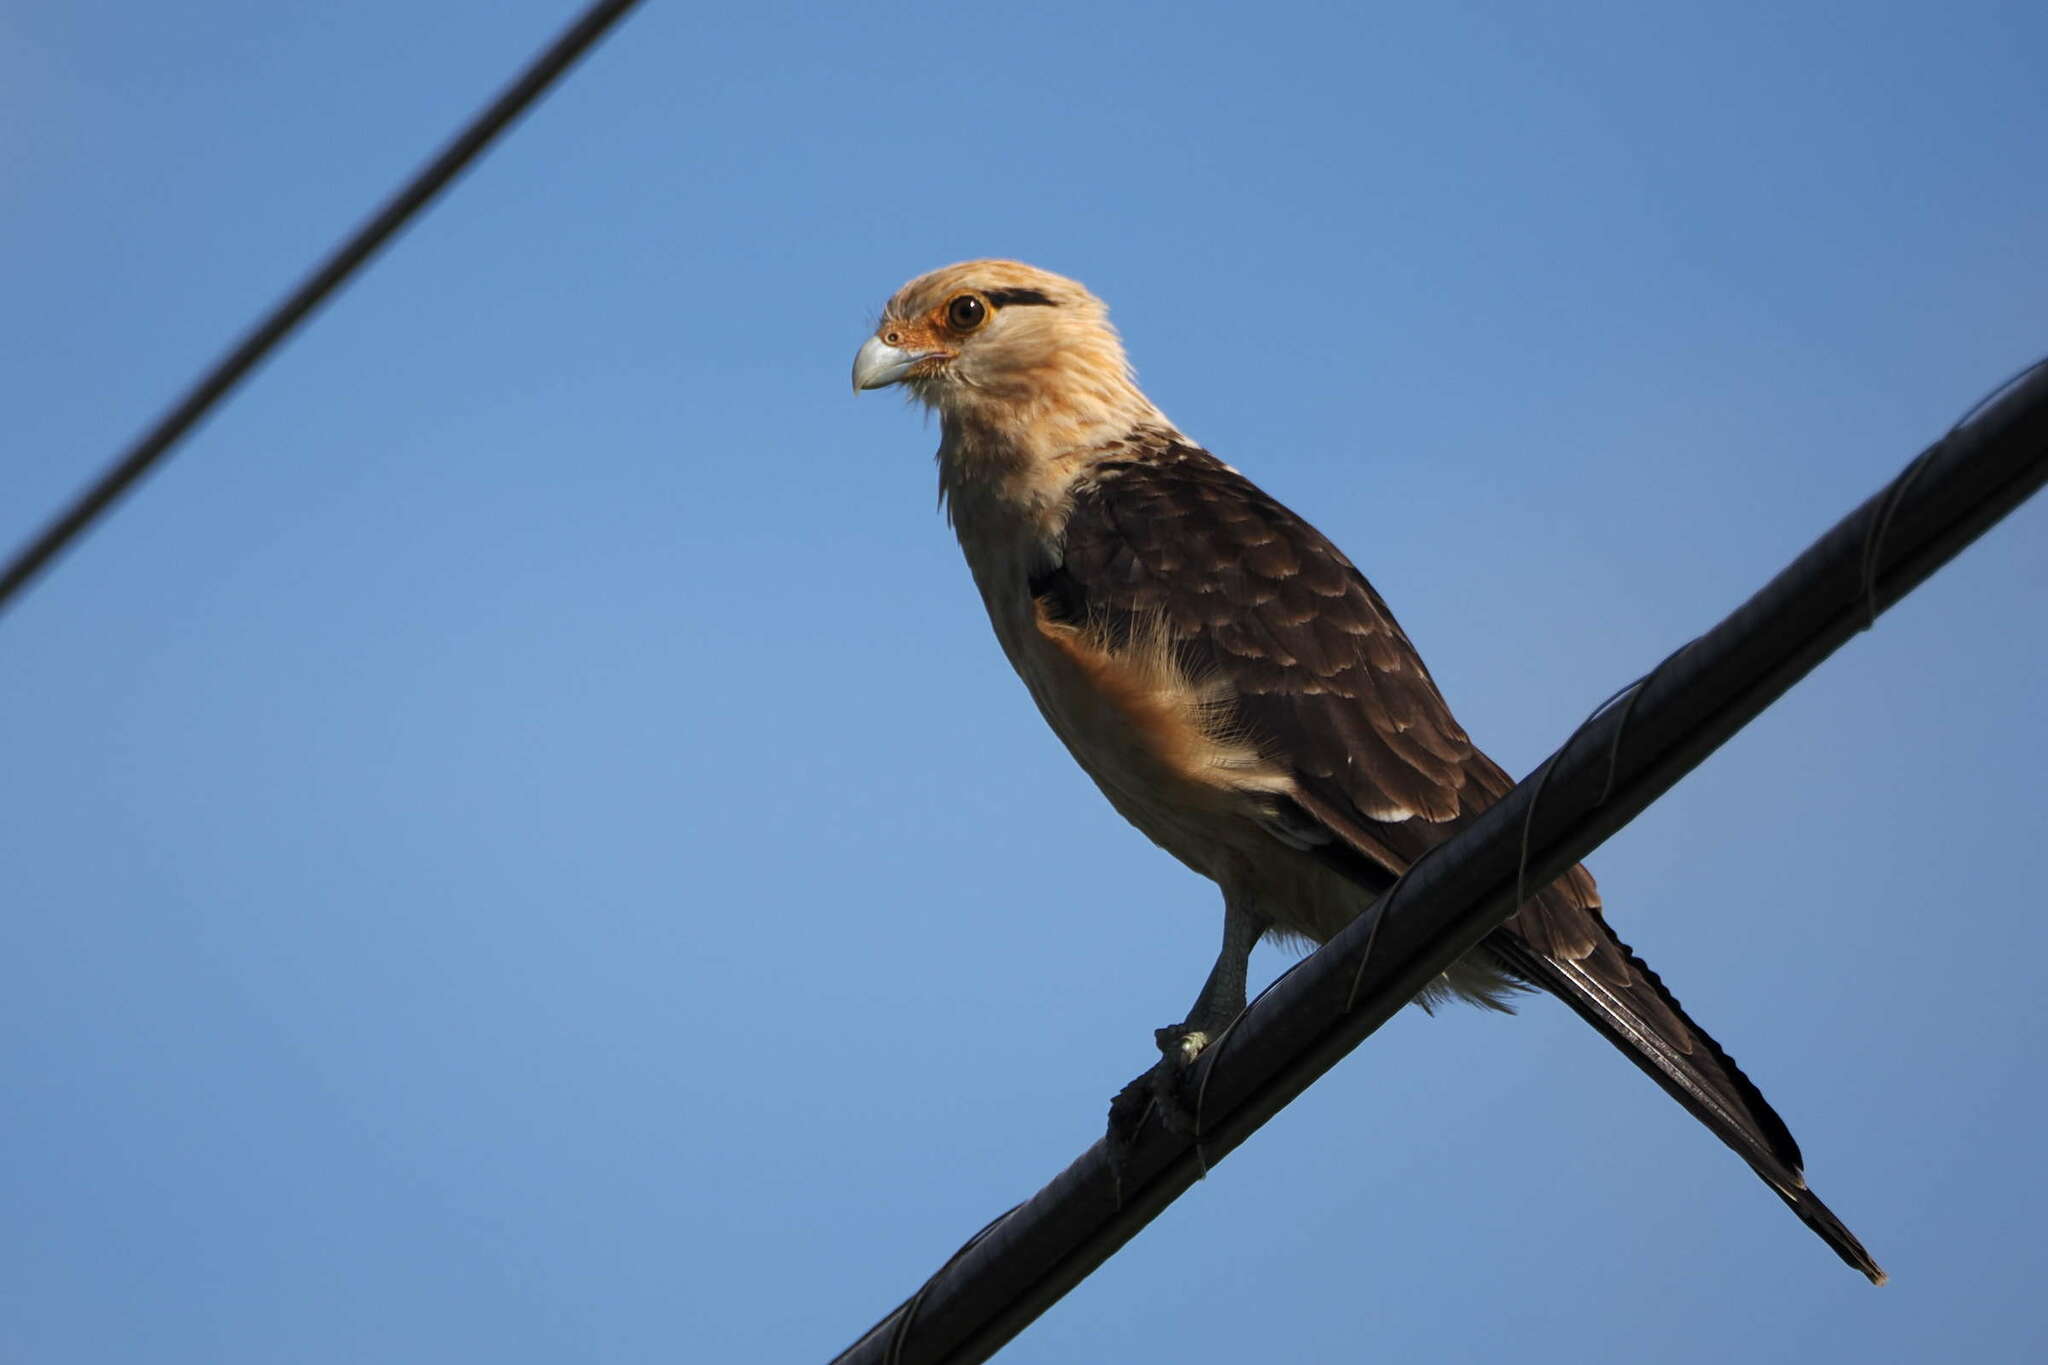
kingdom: Animalia
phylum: Chordata
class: Aves
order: Falconiformes
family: Falconidae
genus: Daptrius
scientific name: Daptrius
